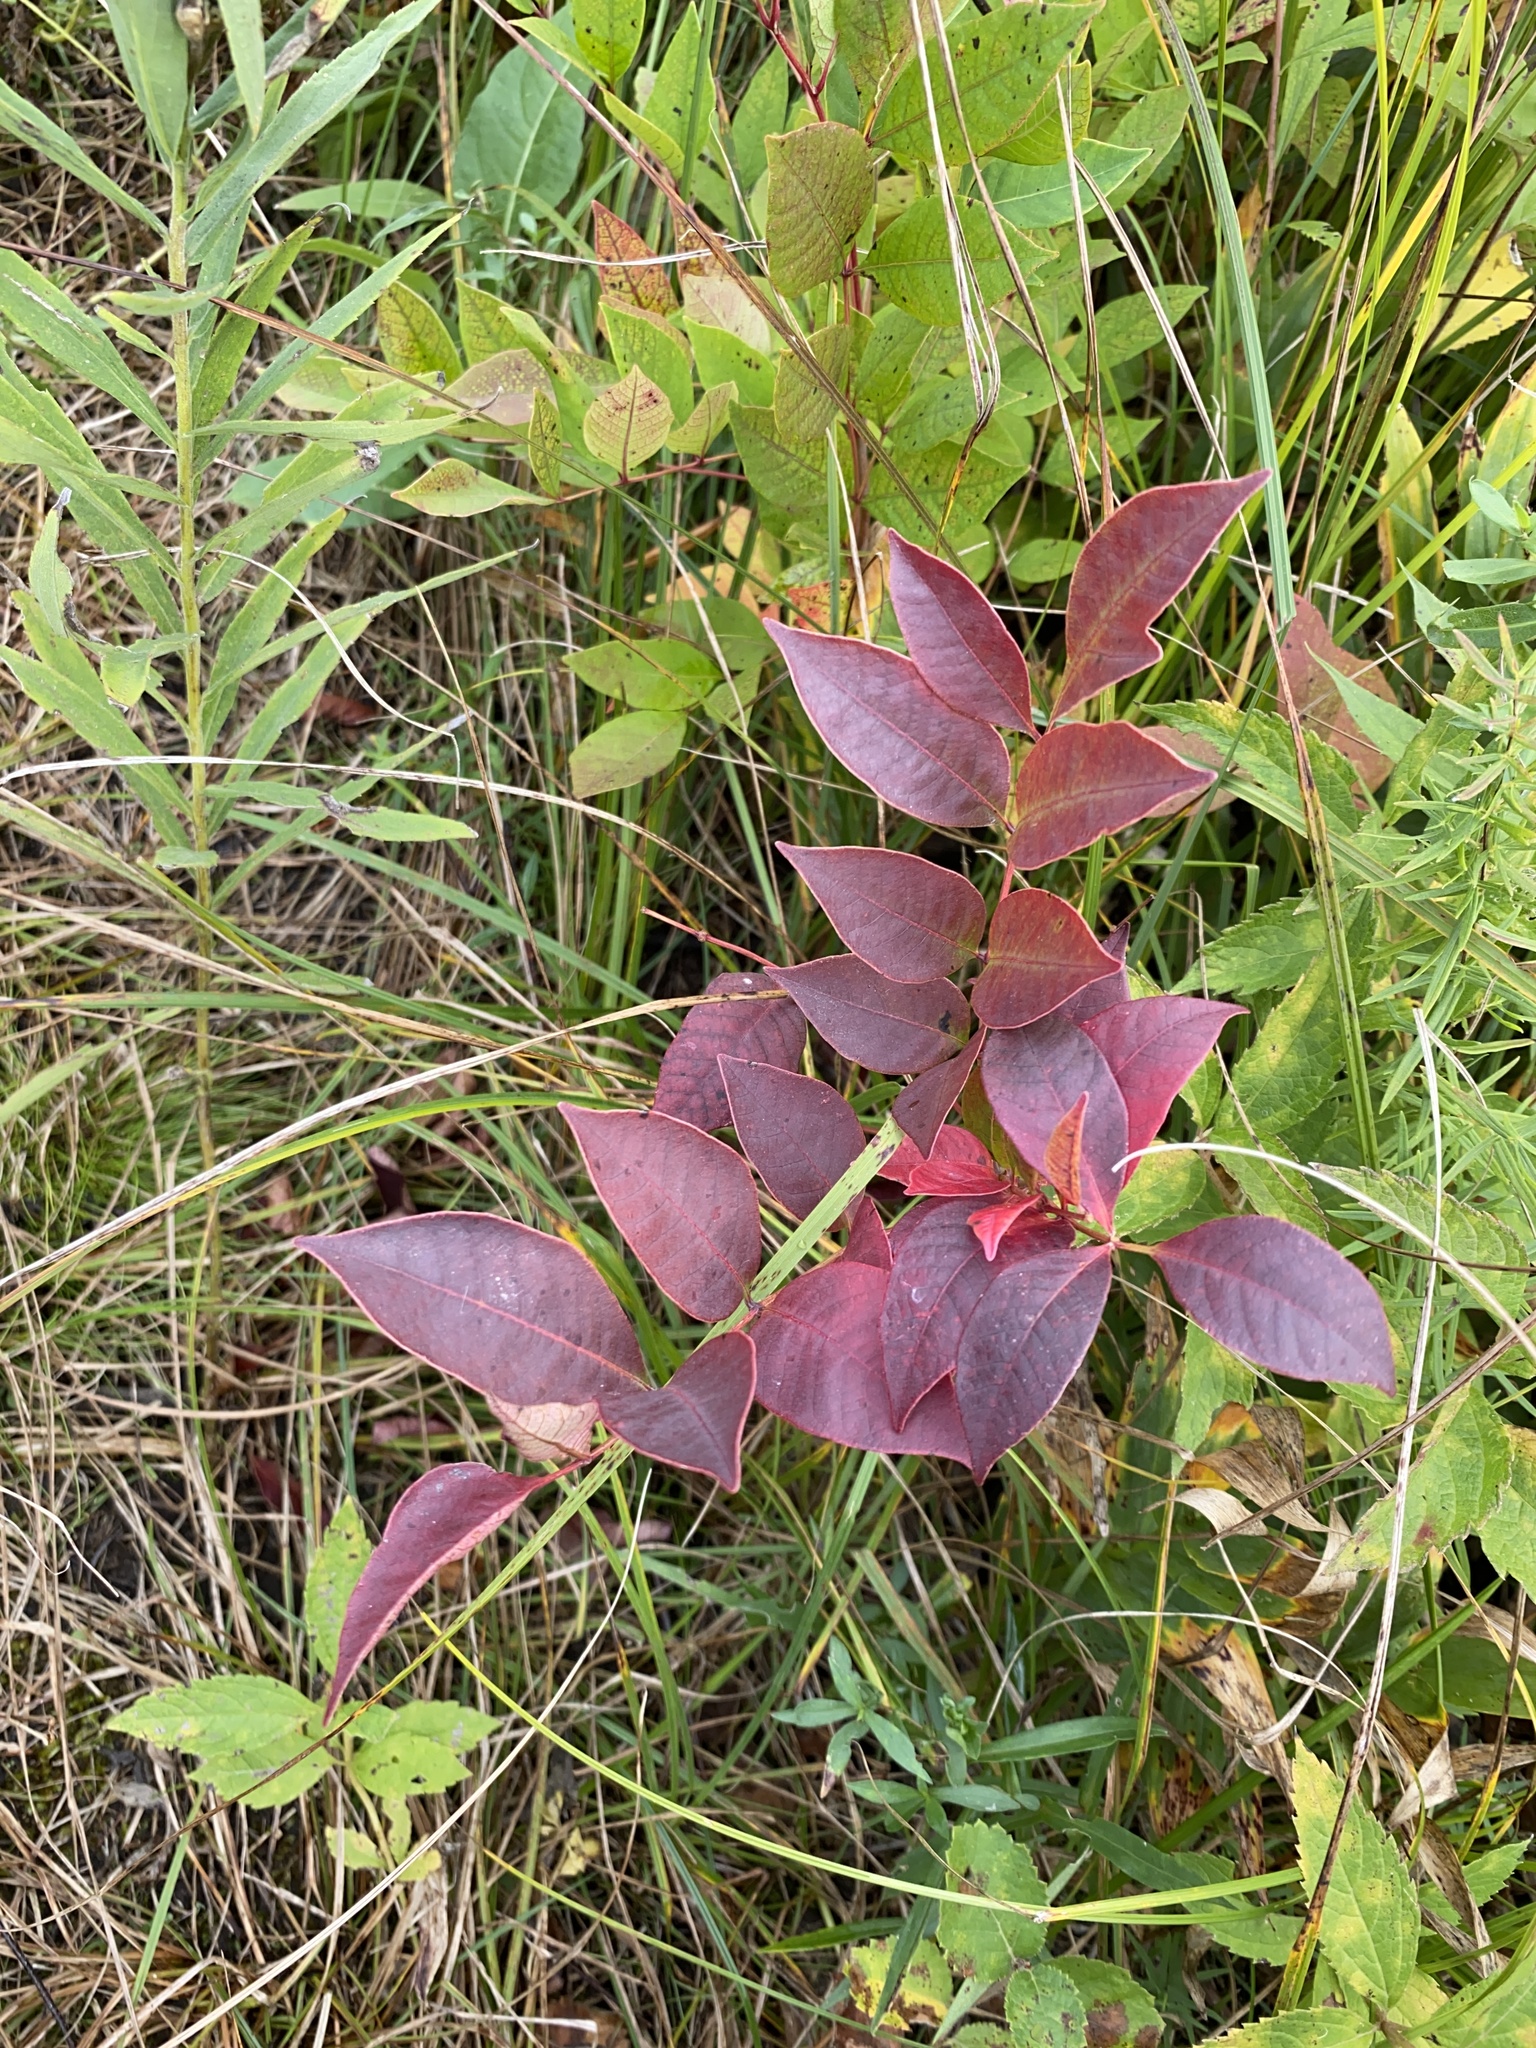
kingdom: Plantae
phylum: Tracheophyta
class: Magnoliopsida
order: Sapindales
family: Anacardiaceae
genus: Toxicodendron
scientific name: Toxicodendron vernix
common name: Poison sumac
